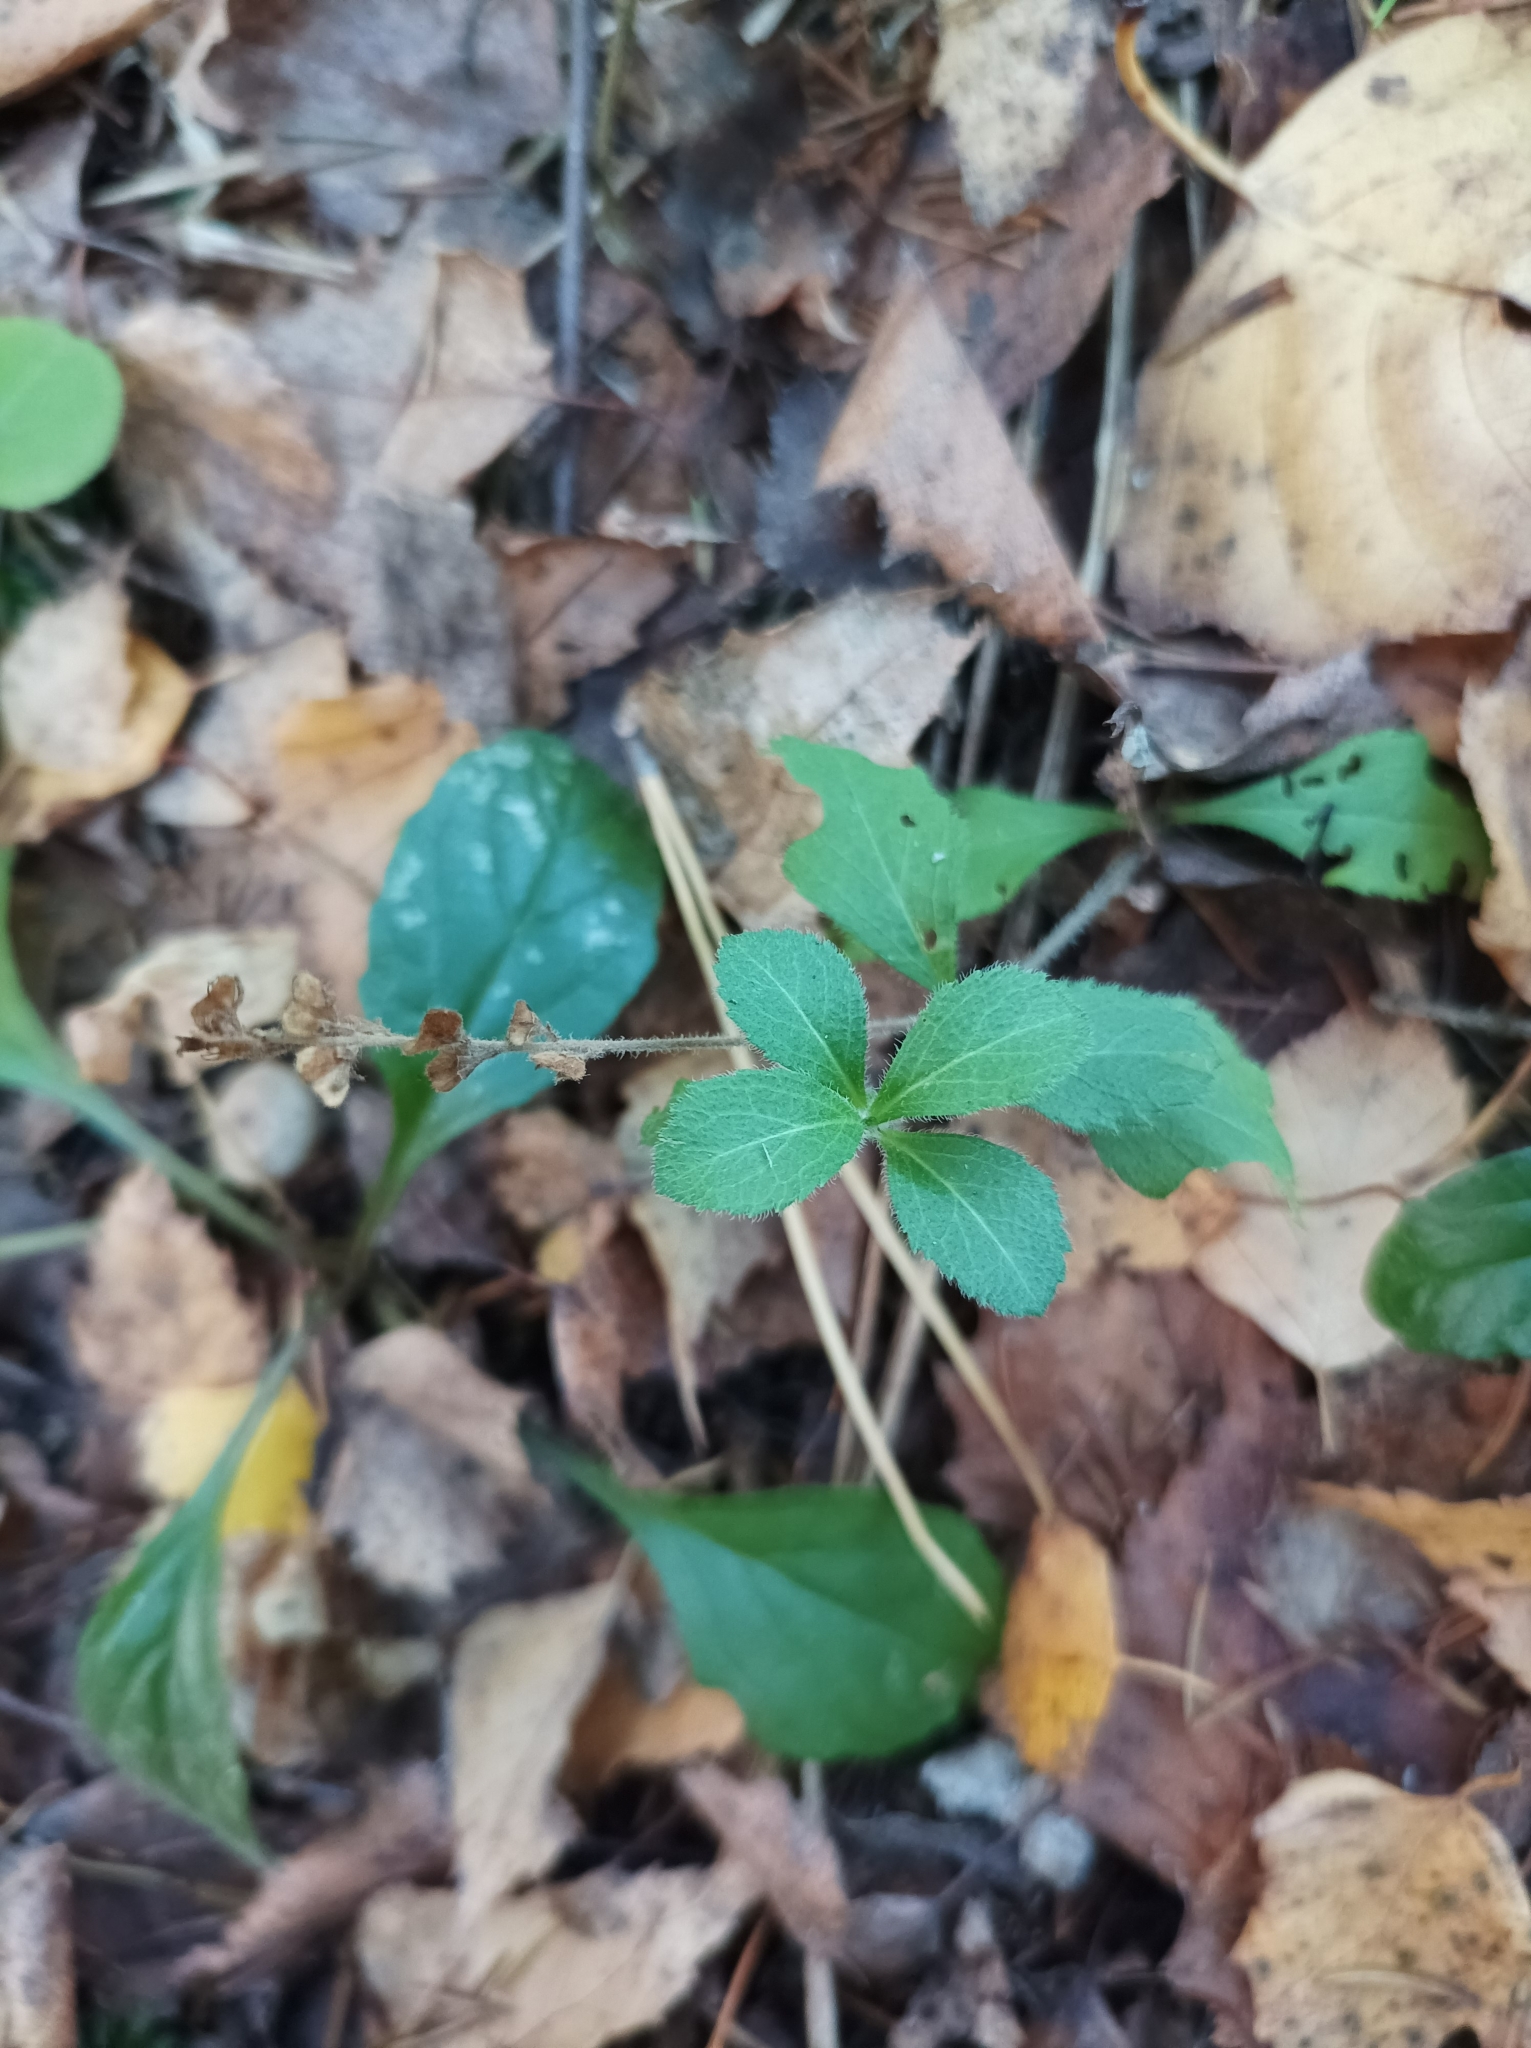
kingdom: Plantae
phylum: Tracheophyta
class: Magnoliopsida
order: Lamiales
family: Plantaginaceae
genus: Veronica
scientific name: Veronica officinalis
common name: Common speedwell
